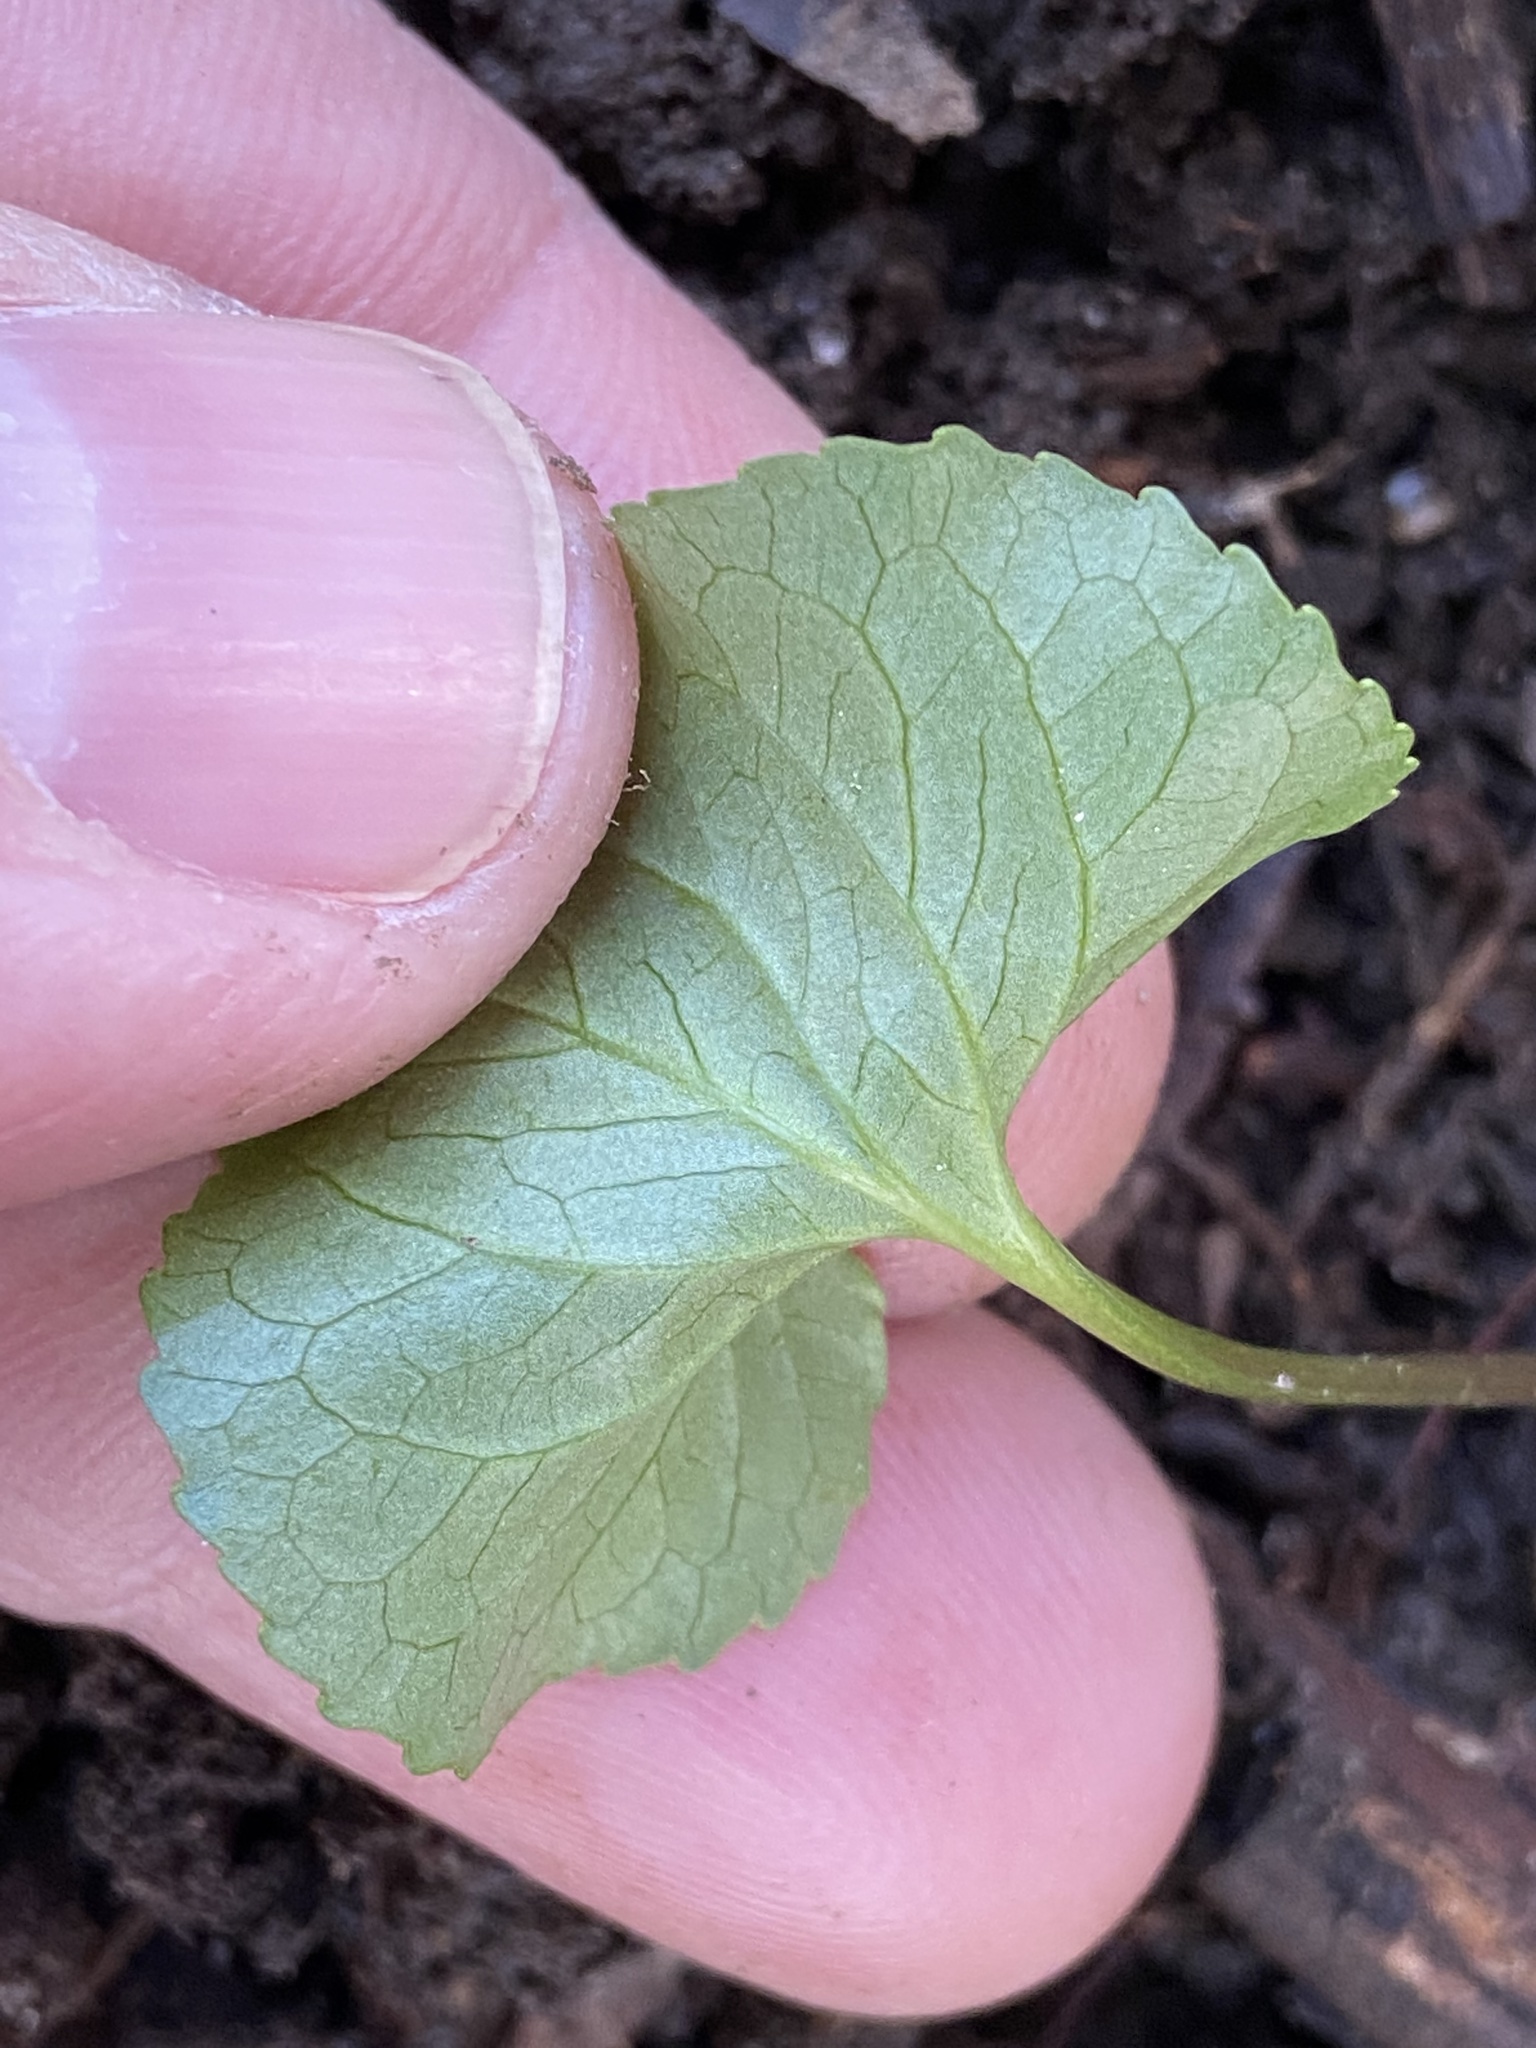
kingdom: Plantae
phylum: Tracheophyta
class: Magnoliopsida
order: Malpighiales
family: Violaceae
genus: Viola
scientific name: Viola eriocarpa
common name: Smooth yellow violet
